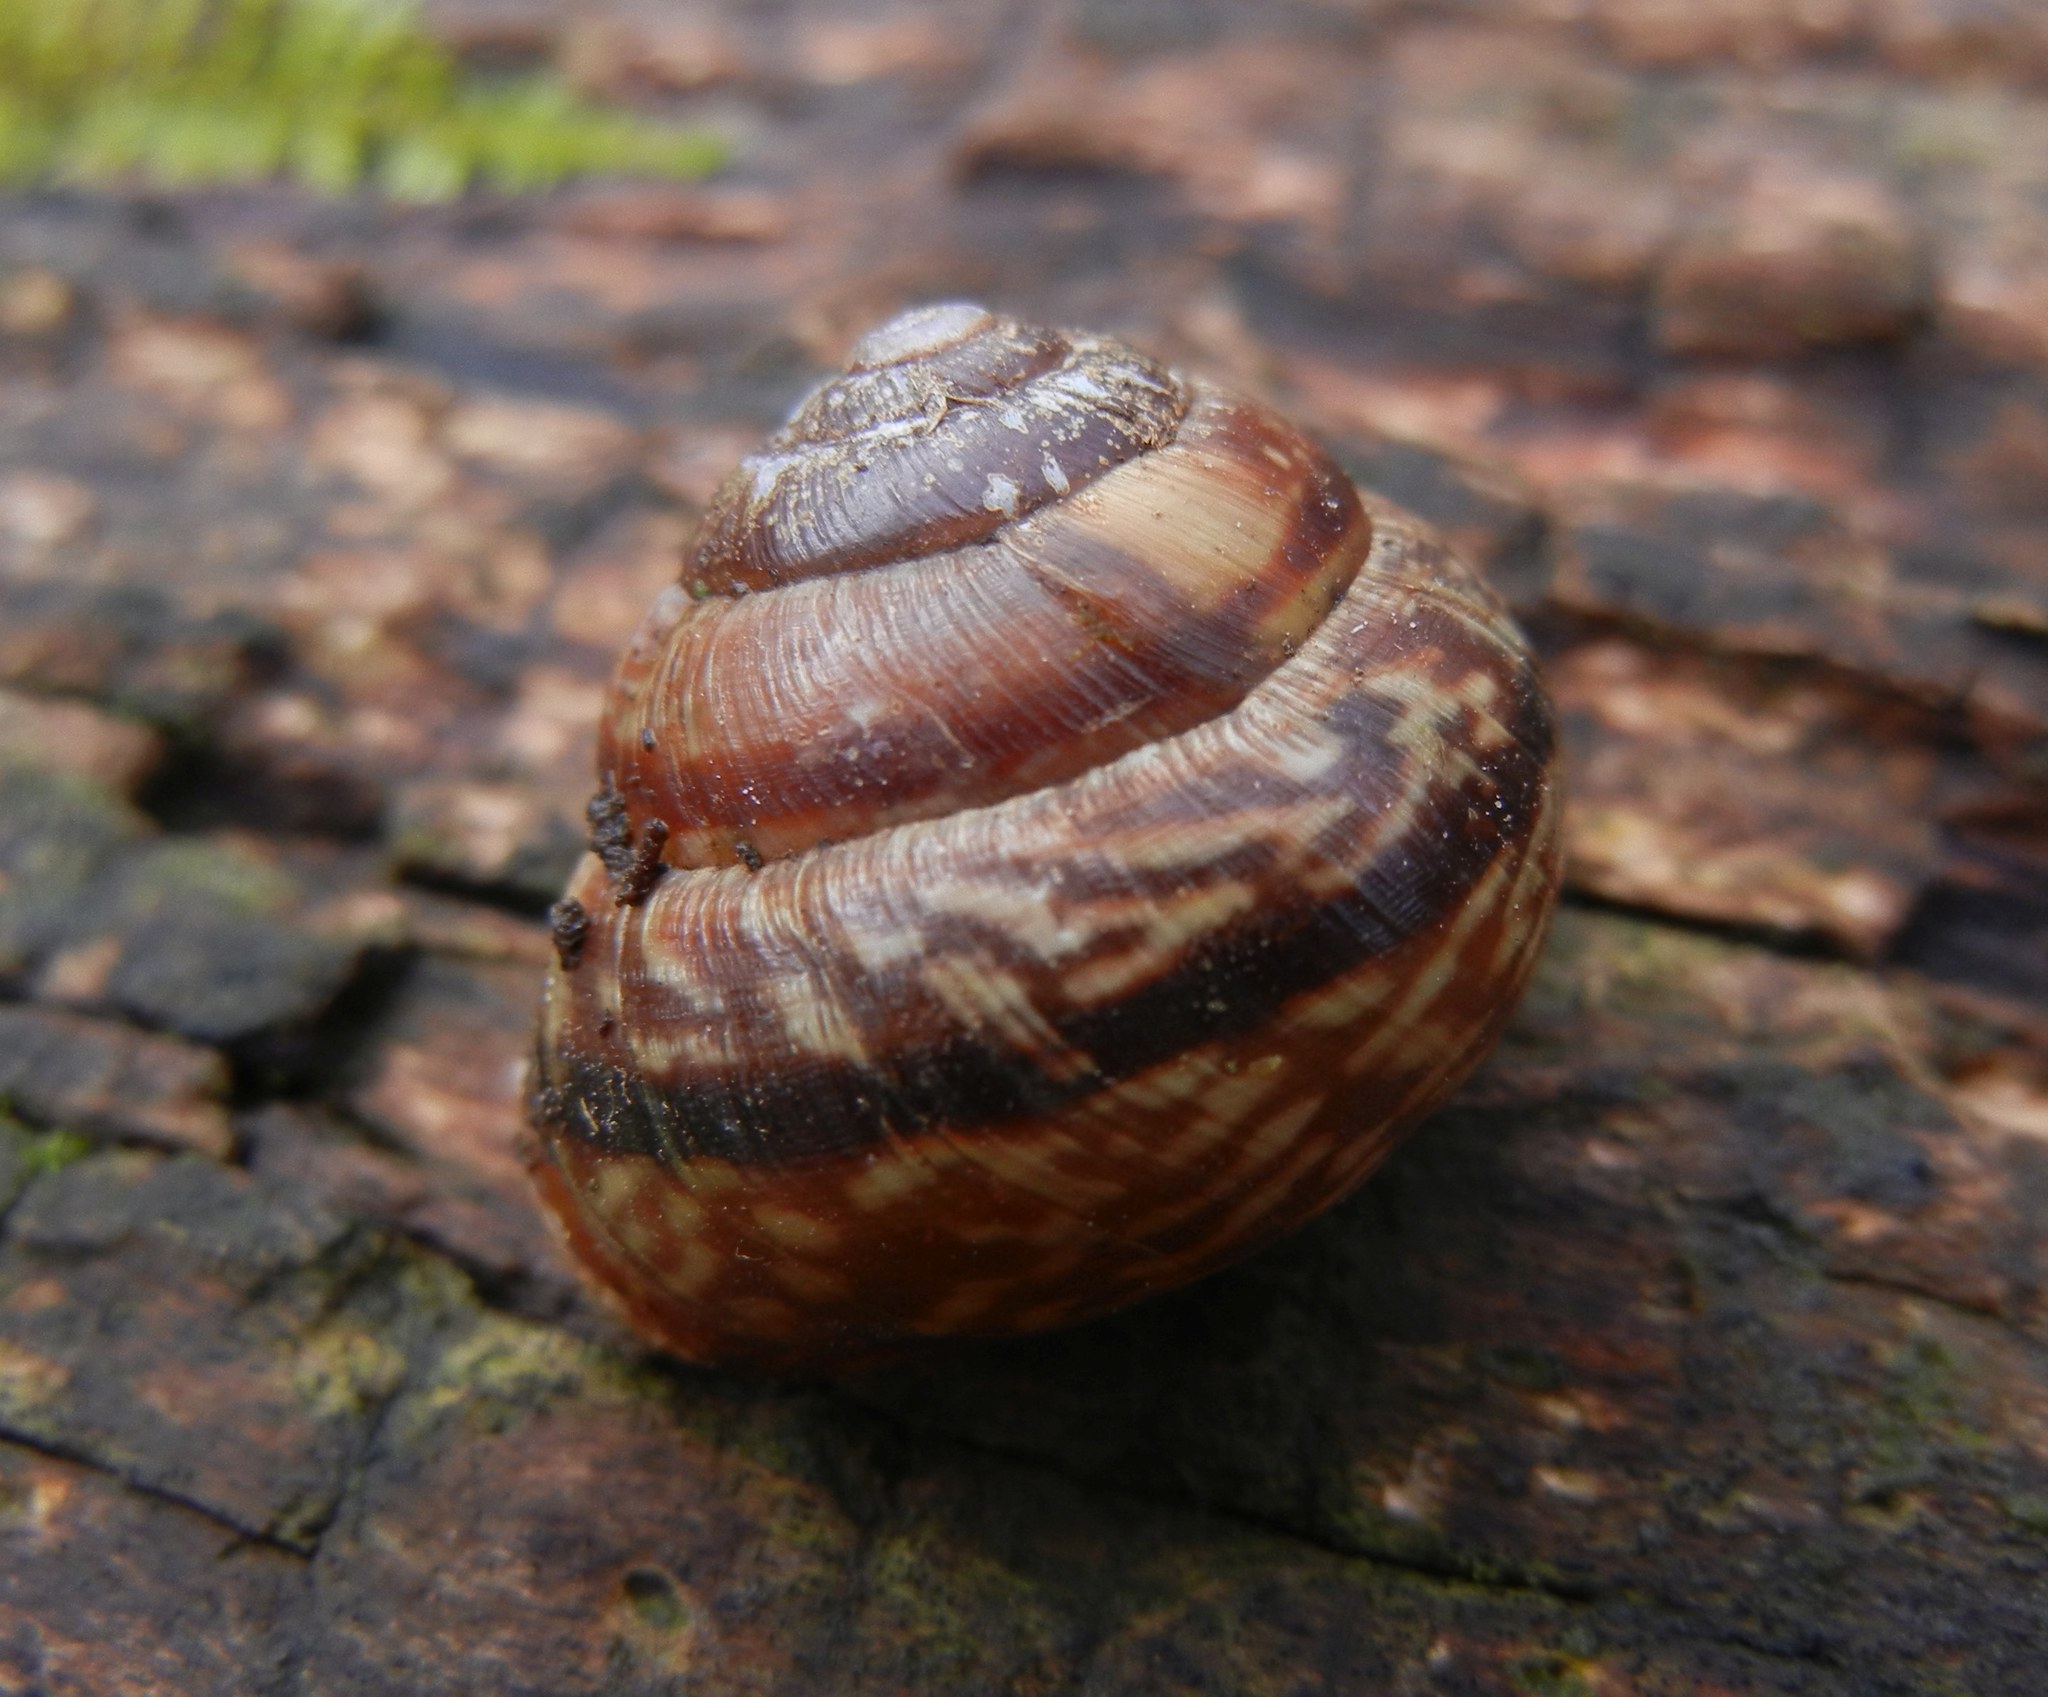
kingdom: Animalia
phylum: Mollusca
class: Gastropoda
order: Stylommatophora
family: Helicidae
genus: Arianta
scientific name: Arianta arbustorum
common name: Copse snail
